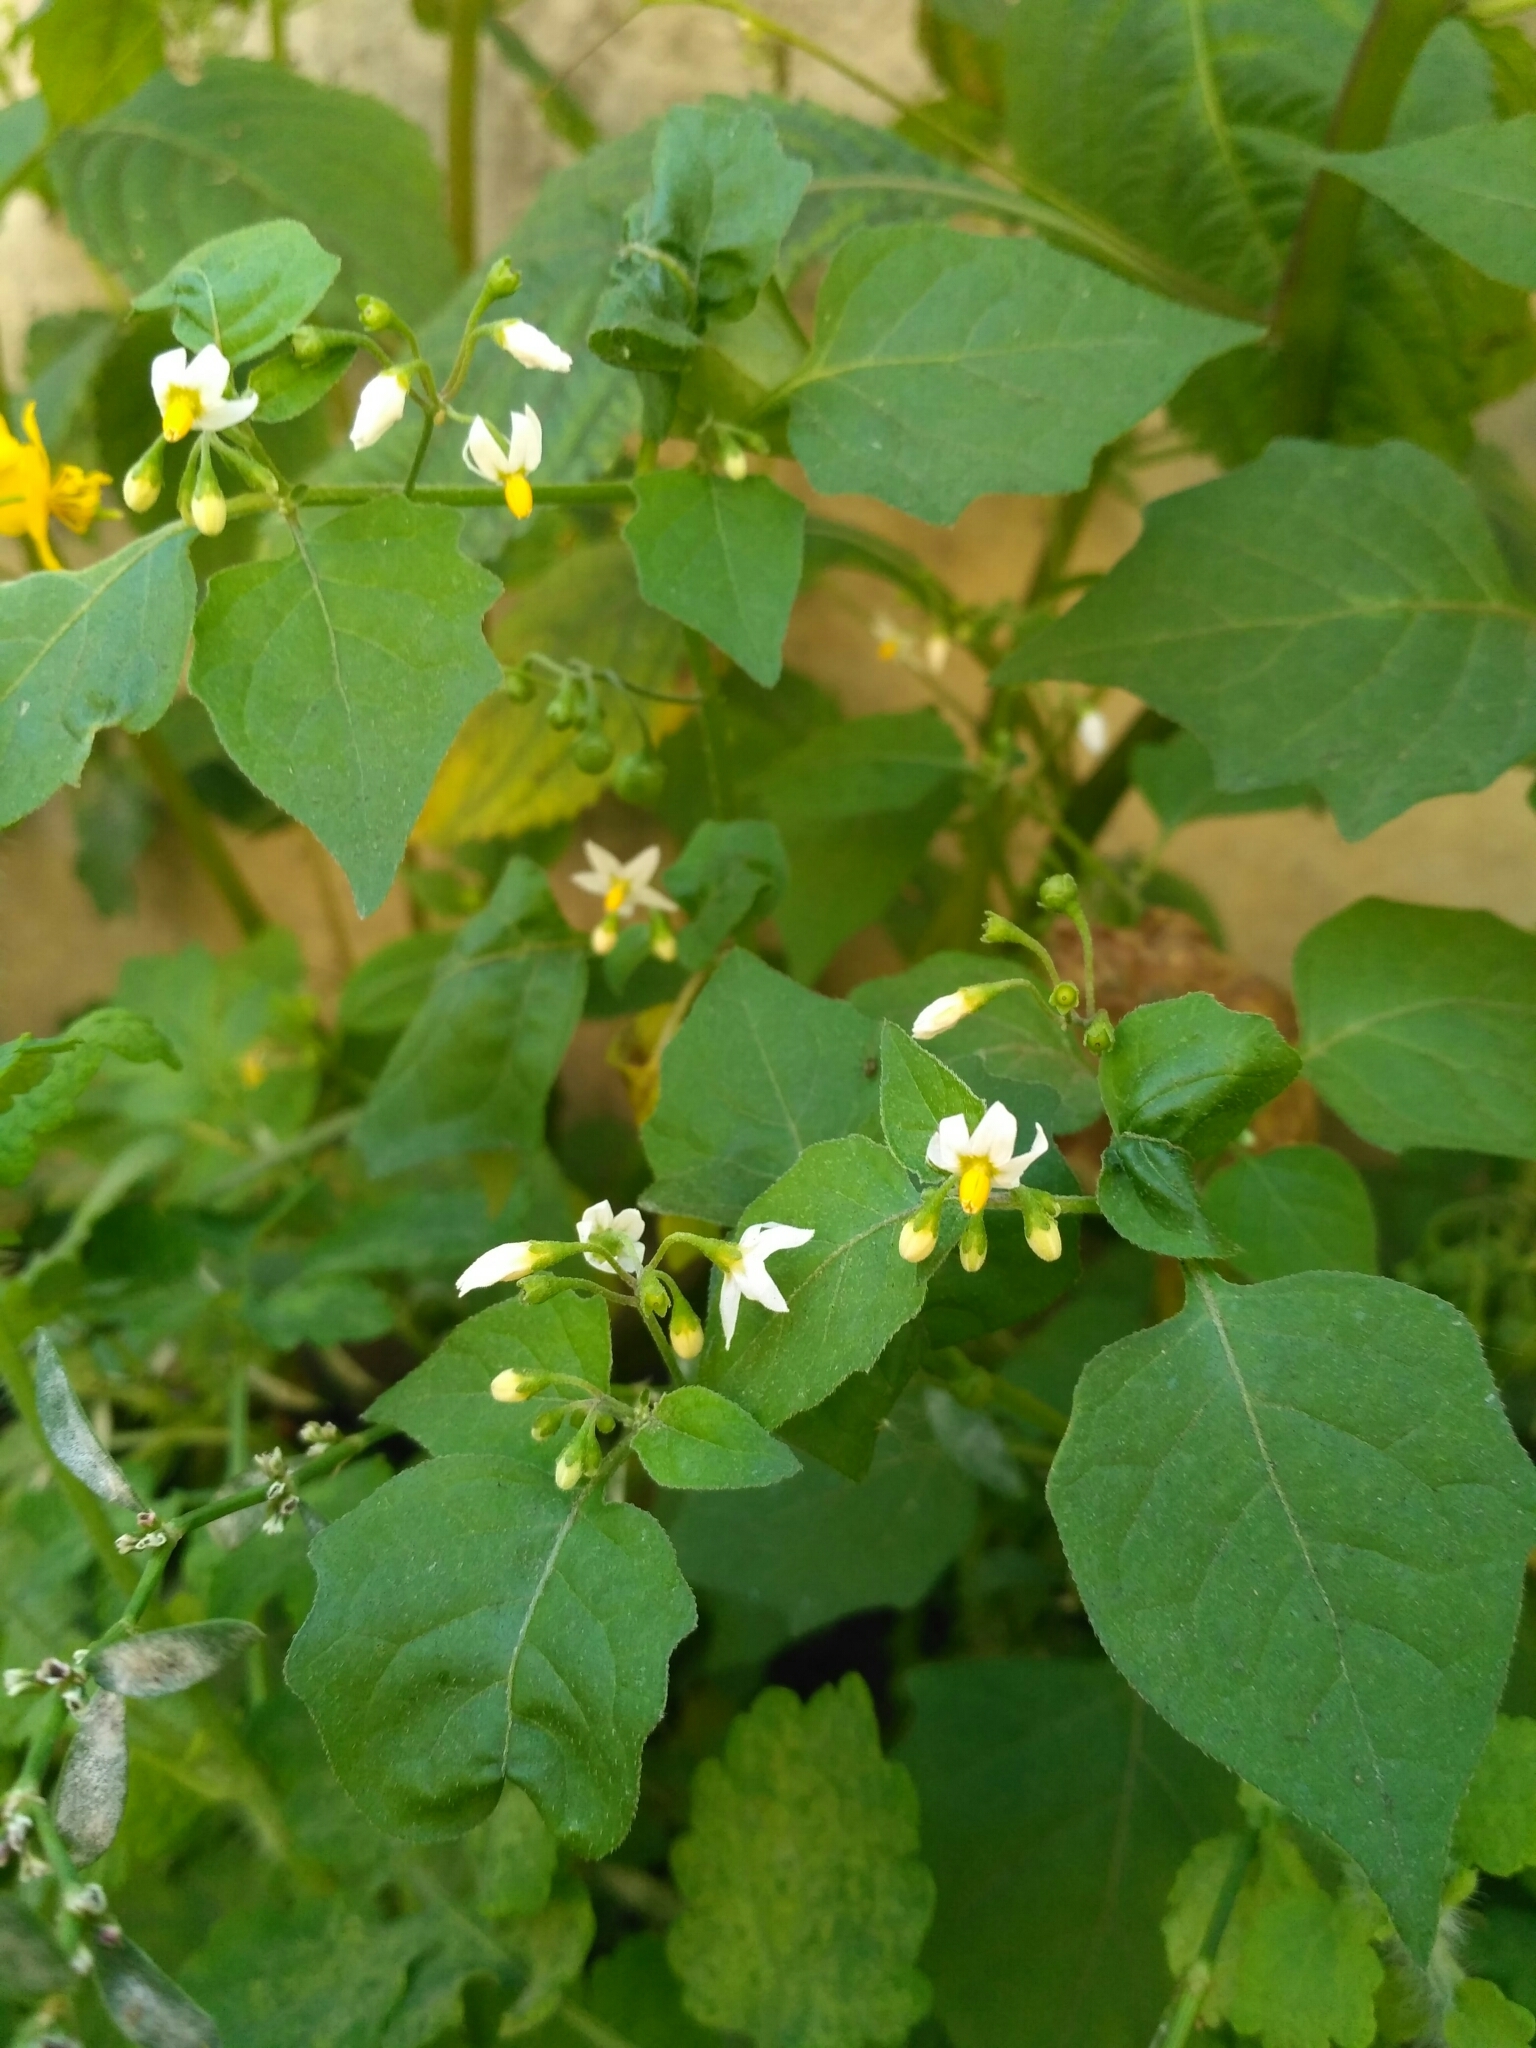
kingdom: Plantae
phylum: Tracheophyta
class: Magnoliopsida
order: Solanales
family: Solanaceae
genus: Solanum
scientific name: Solanum nigrum
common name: Black nightshade
